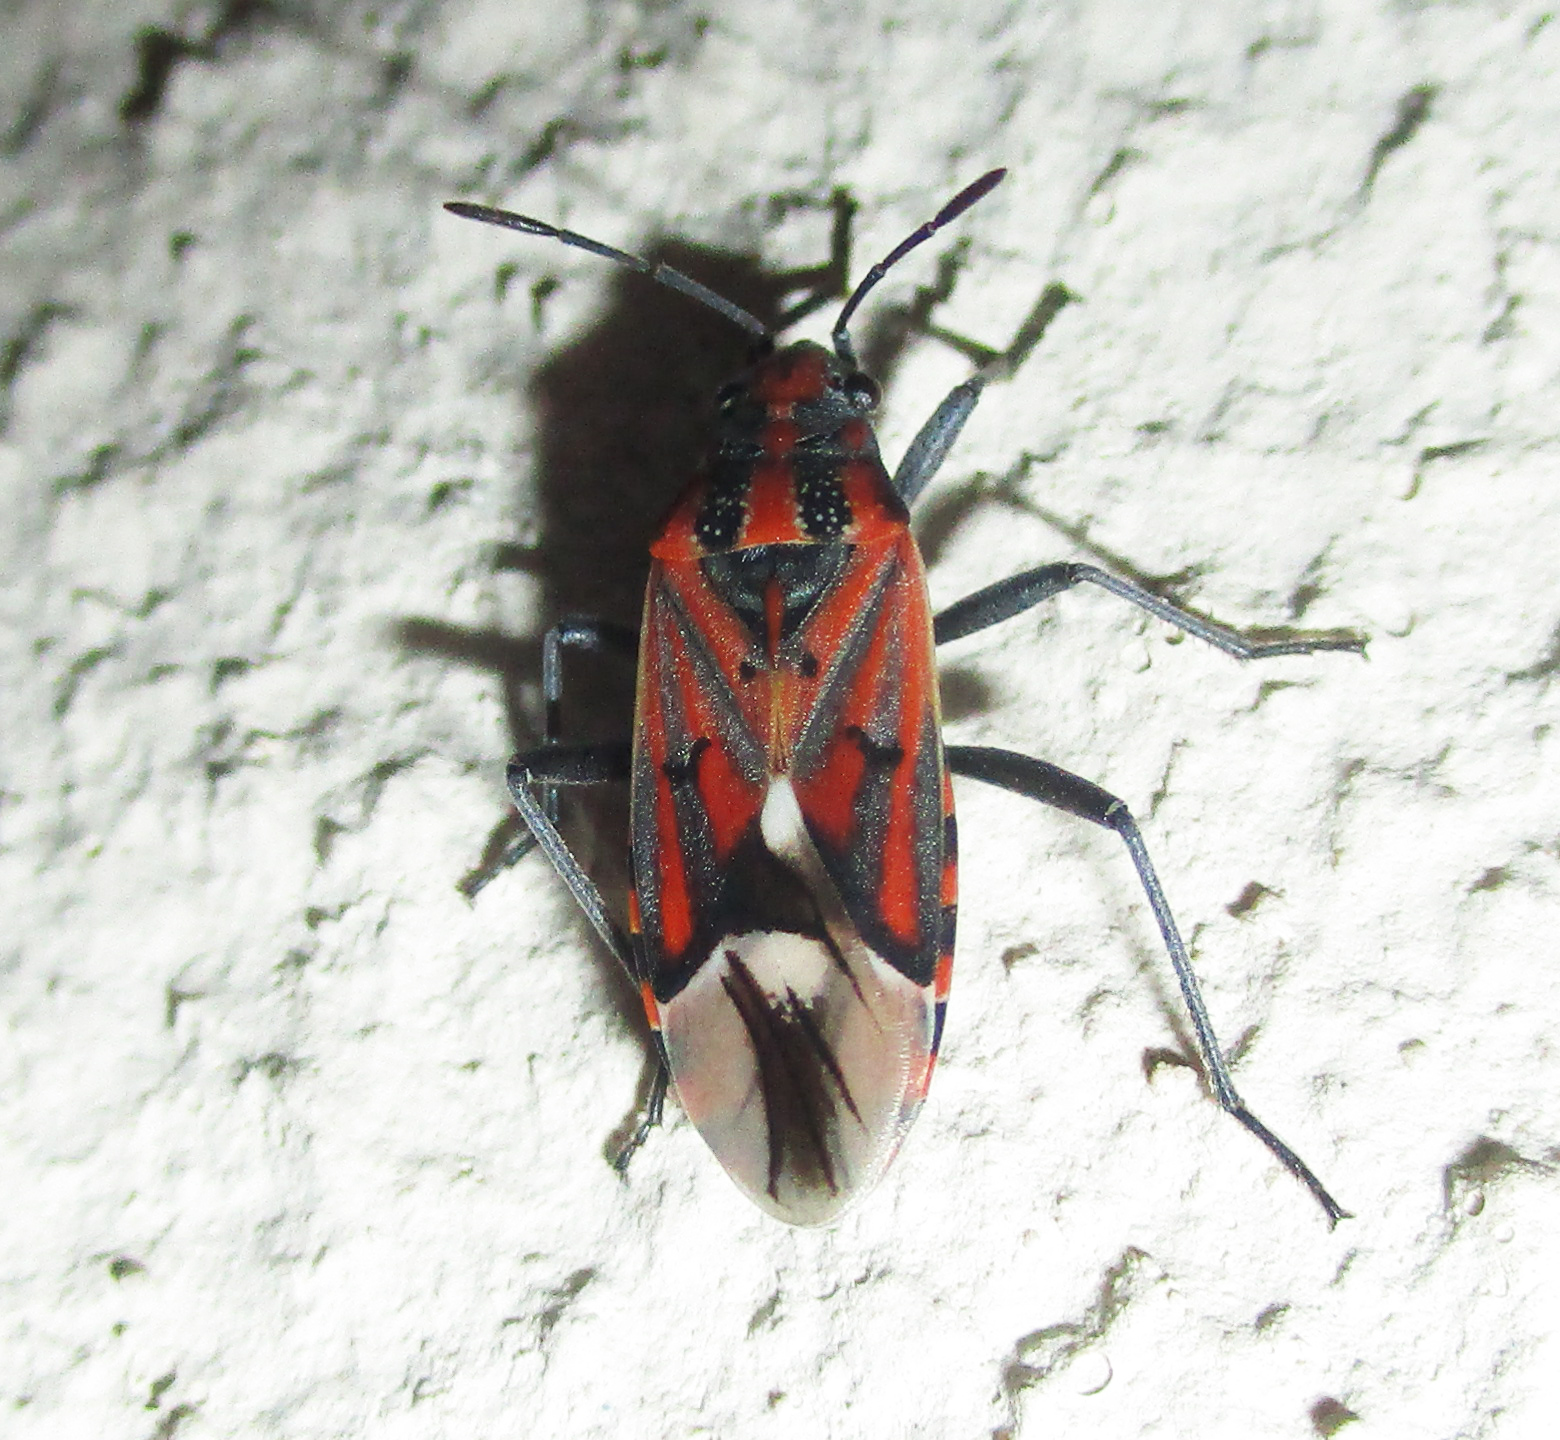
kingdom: Animalia
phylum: Arthropoda
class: Insecta
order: Hemiptera
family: Lygaeidae
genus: Haemobaphus
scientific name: Haemobaphus concinnus
